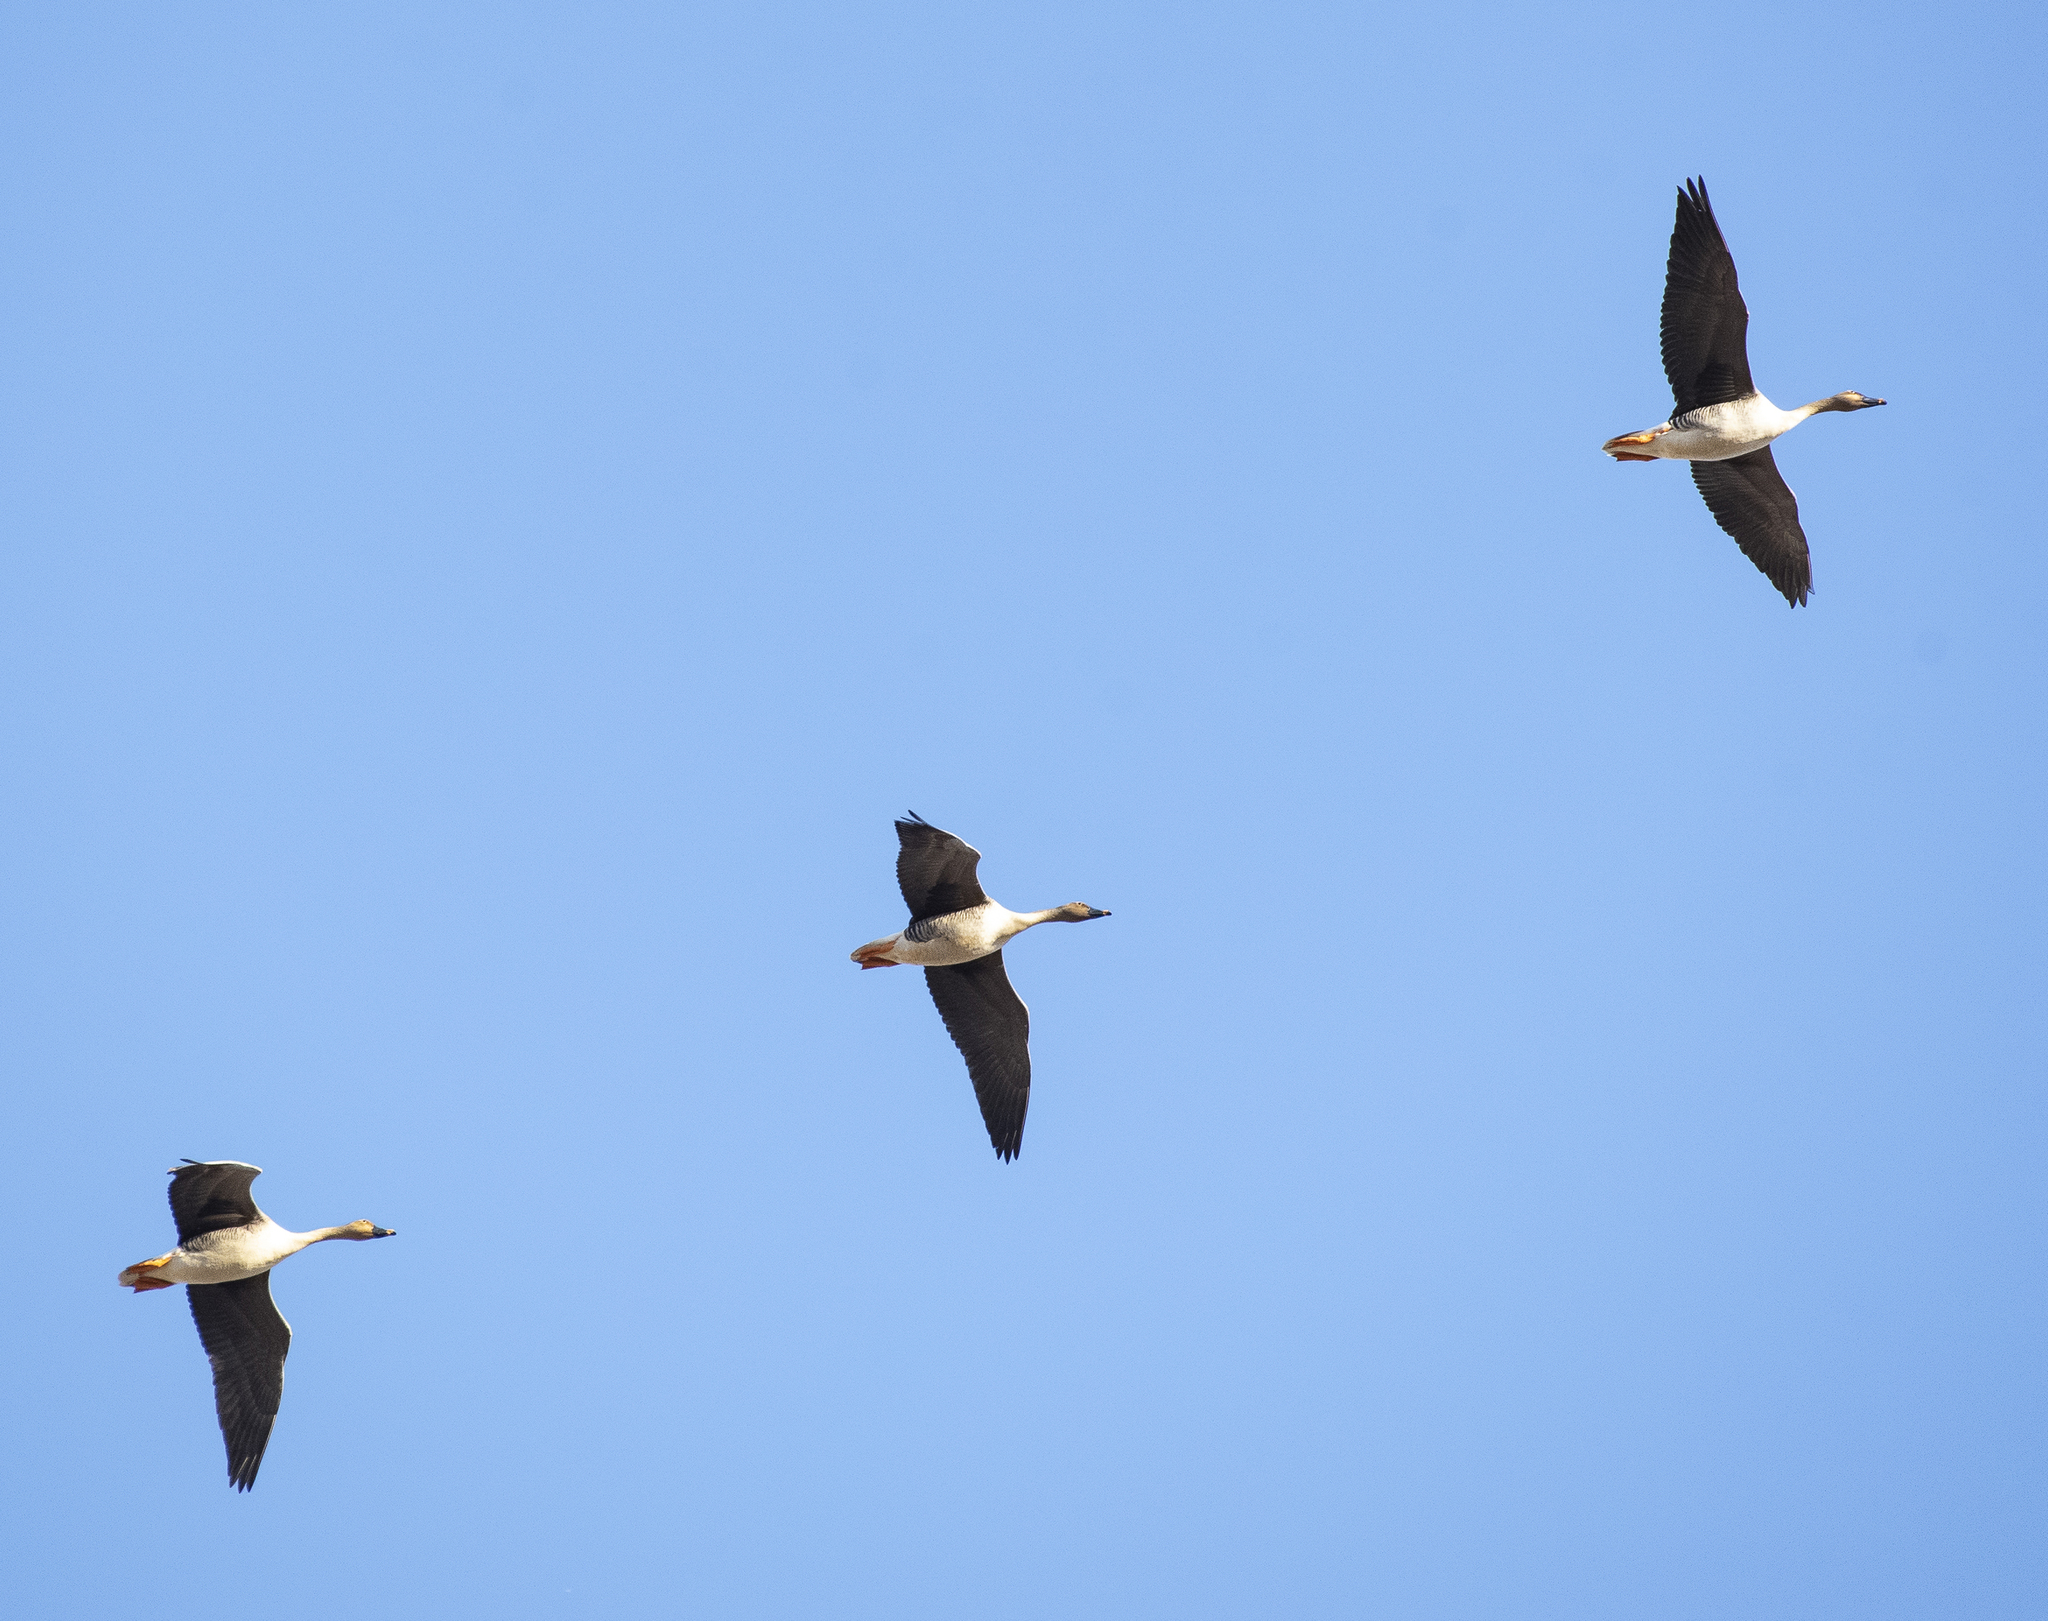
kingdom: Animalia
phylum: Chordata
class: Aves
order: Anseriformes
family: Anatidae
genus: Anser
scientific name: Anser fabalis
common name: Bean goose
